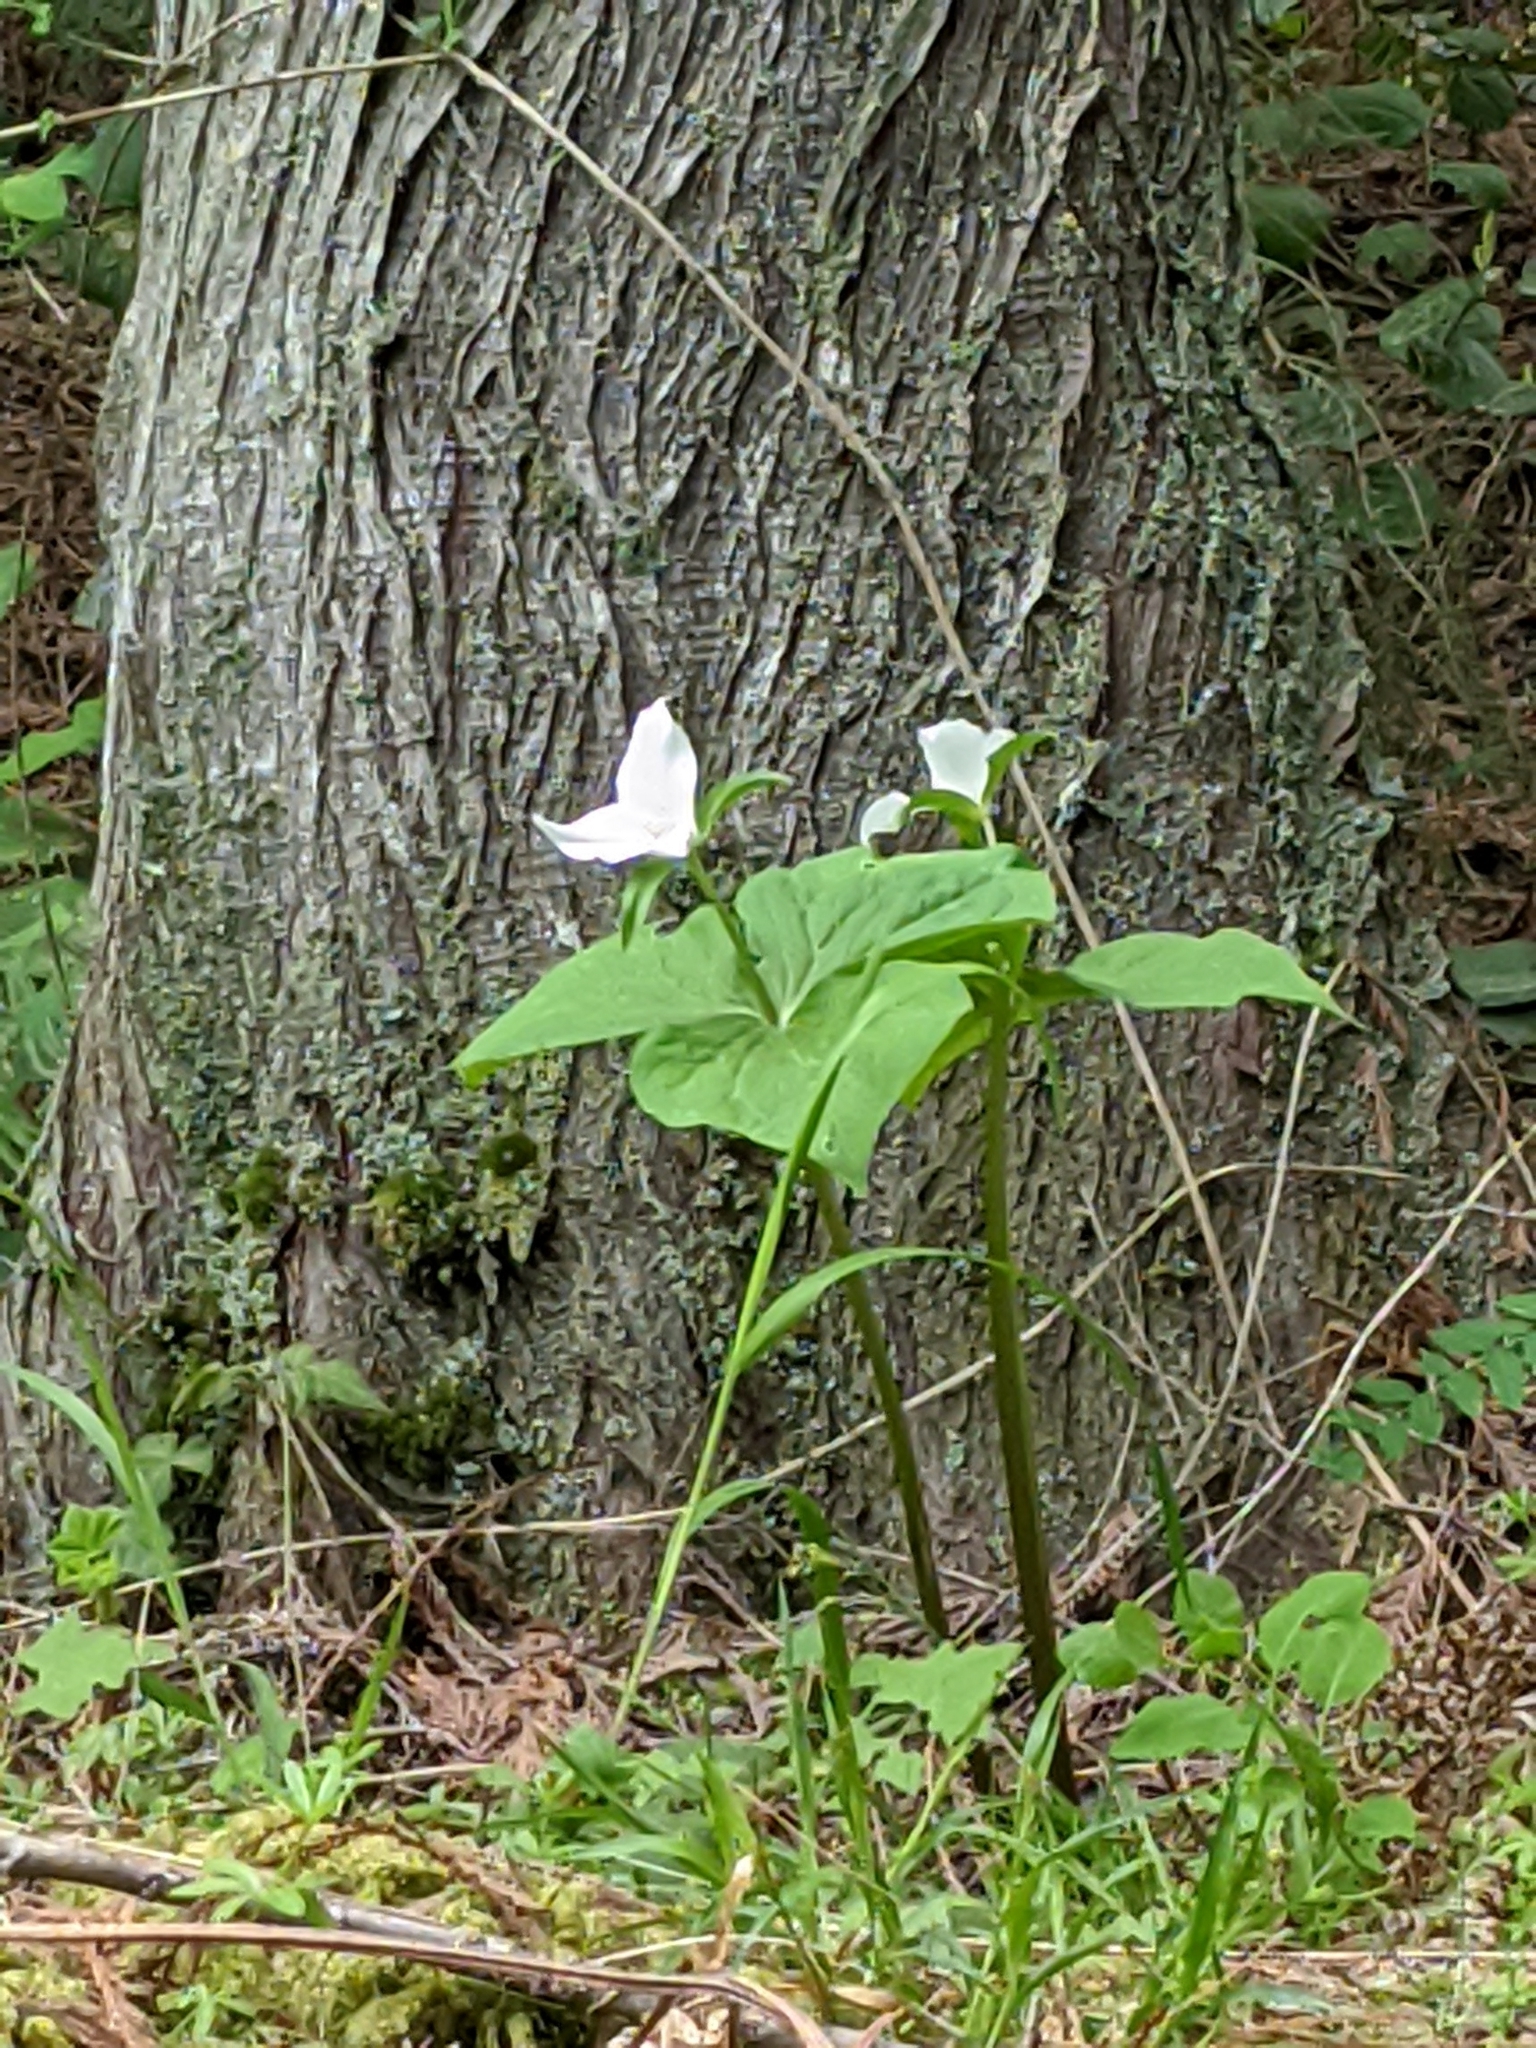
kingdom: Plantae
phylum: Tracheophyta
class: Liliopsida
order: Liliales
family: Melanthiaceae
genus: Trillium
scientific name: Trillium ovatum
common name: Pacific trillium
